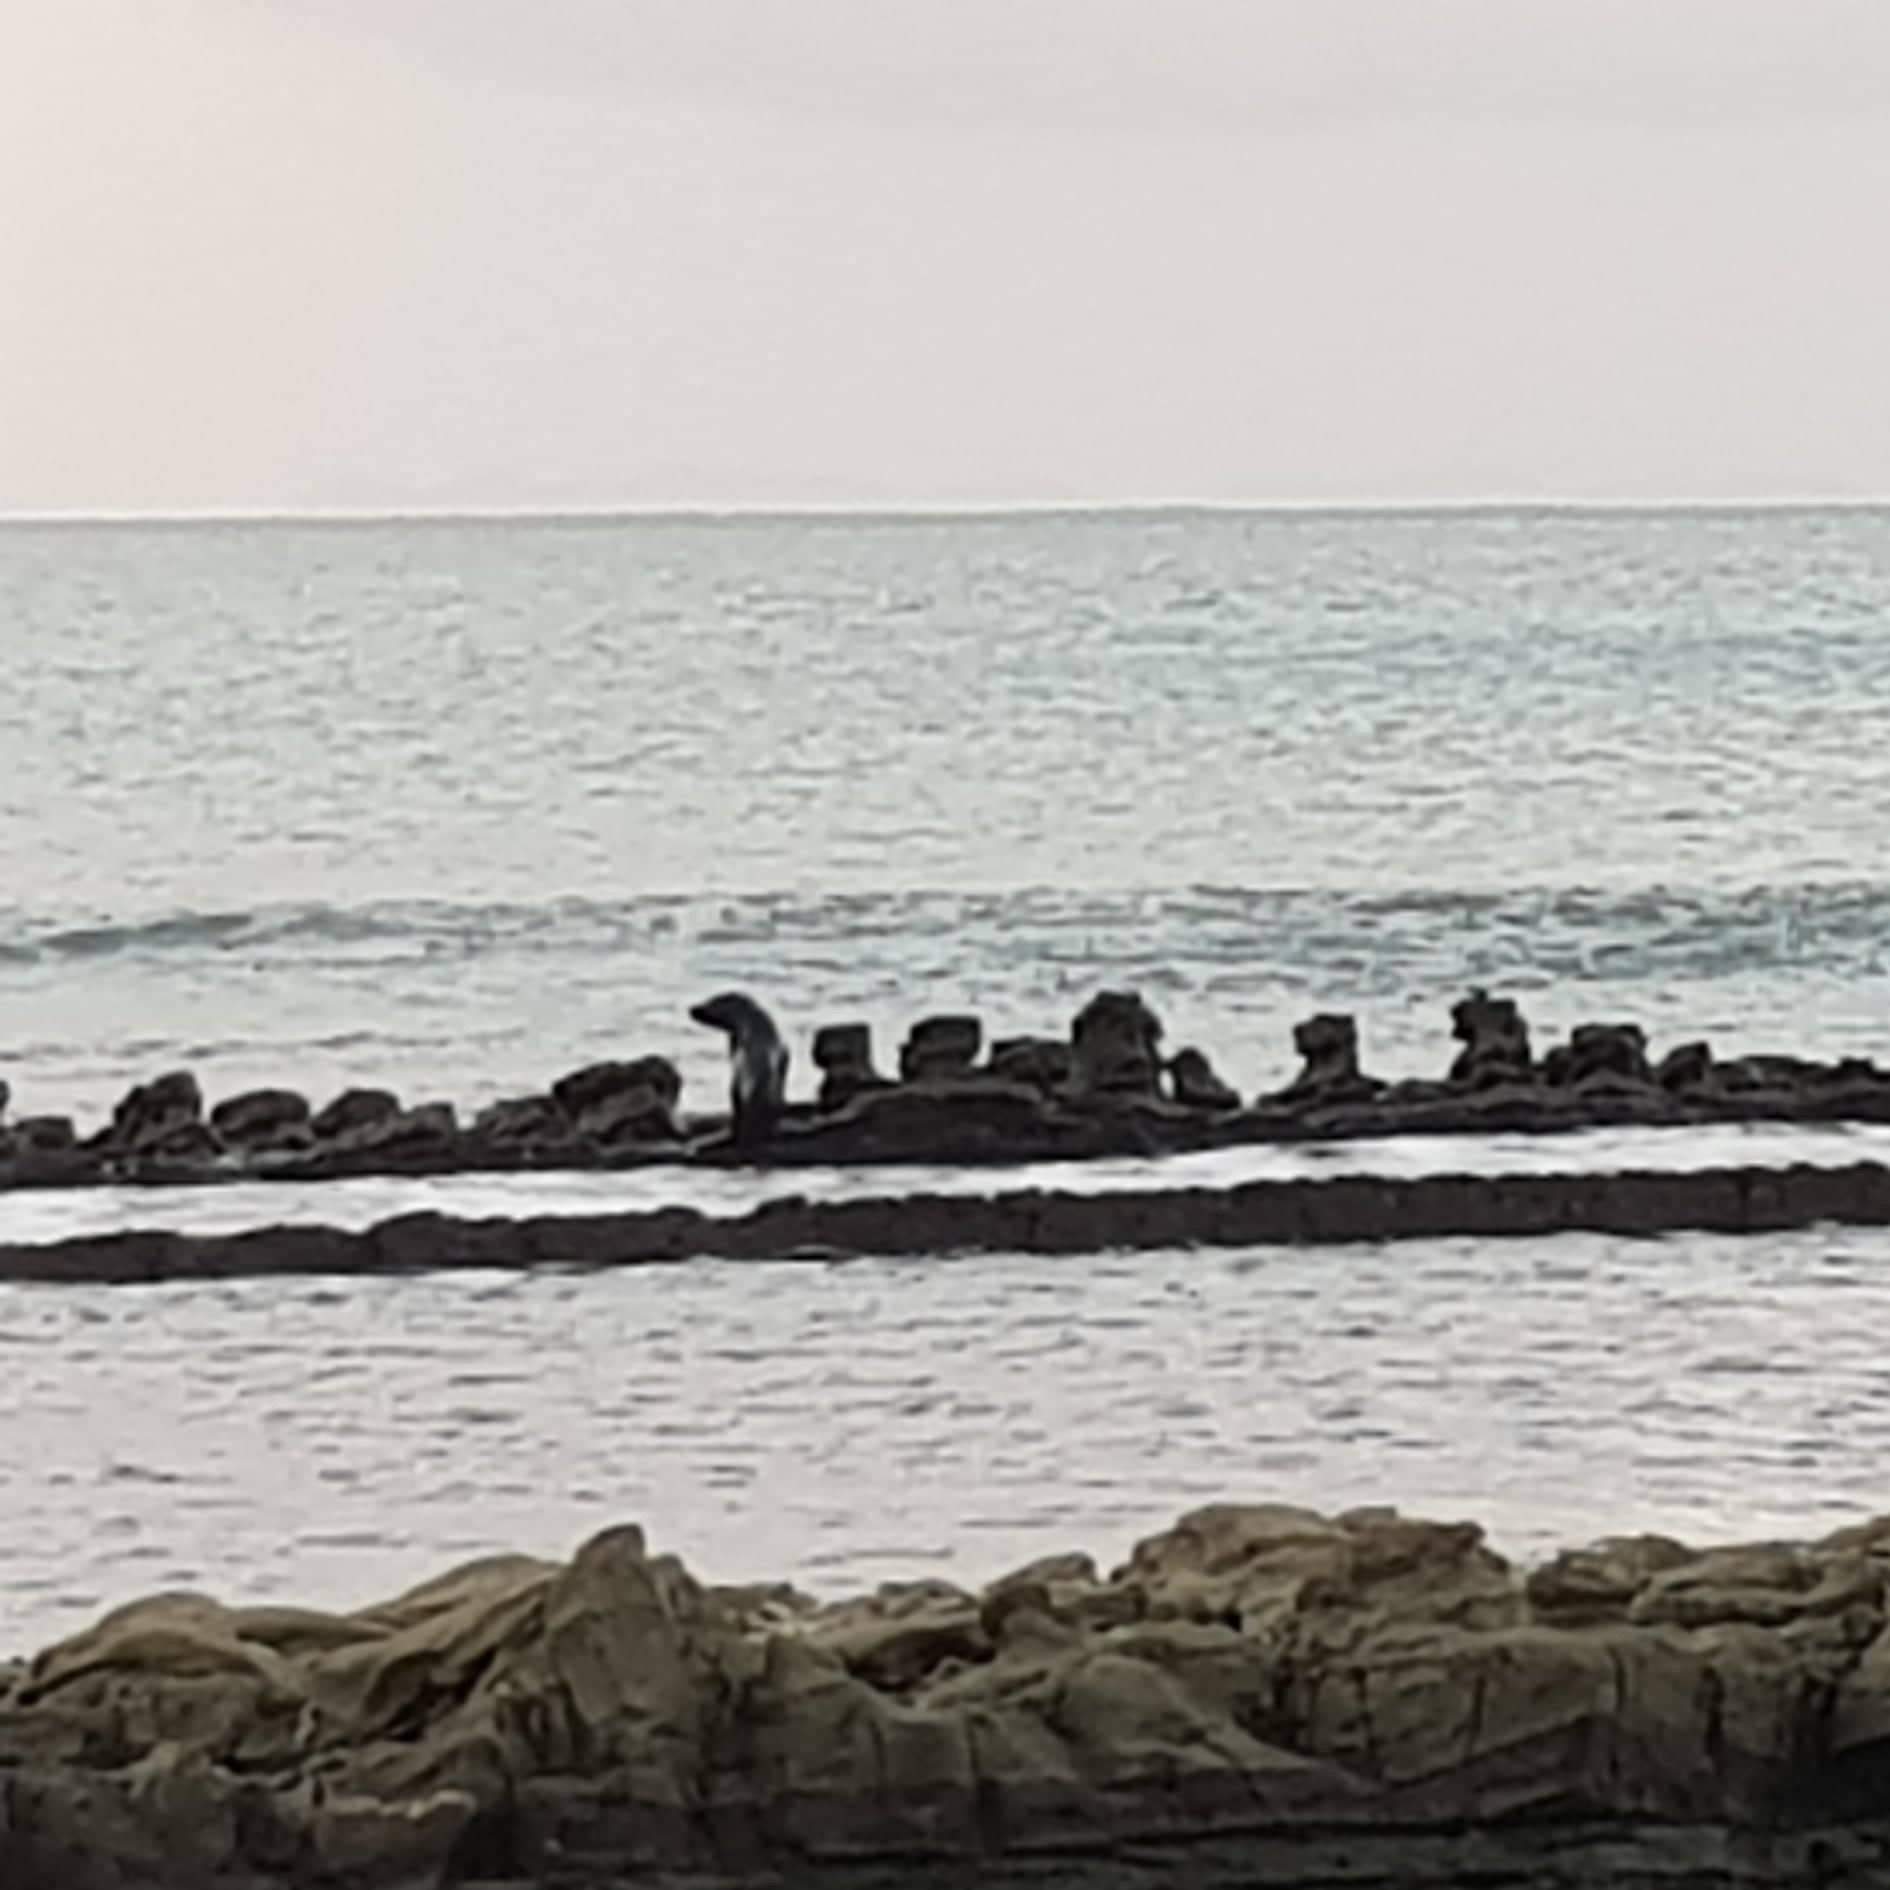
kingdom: Animalia
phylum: Chordata
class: Mammalia
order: Carnivora
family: Otariidae
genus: Arctocephalus
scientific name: Arctocephalus forsteri
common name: New zealand fur seal
